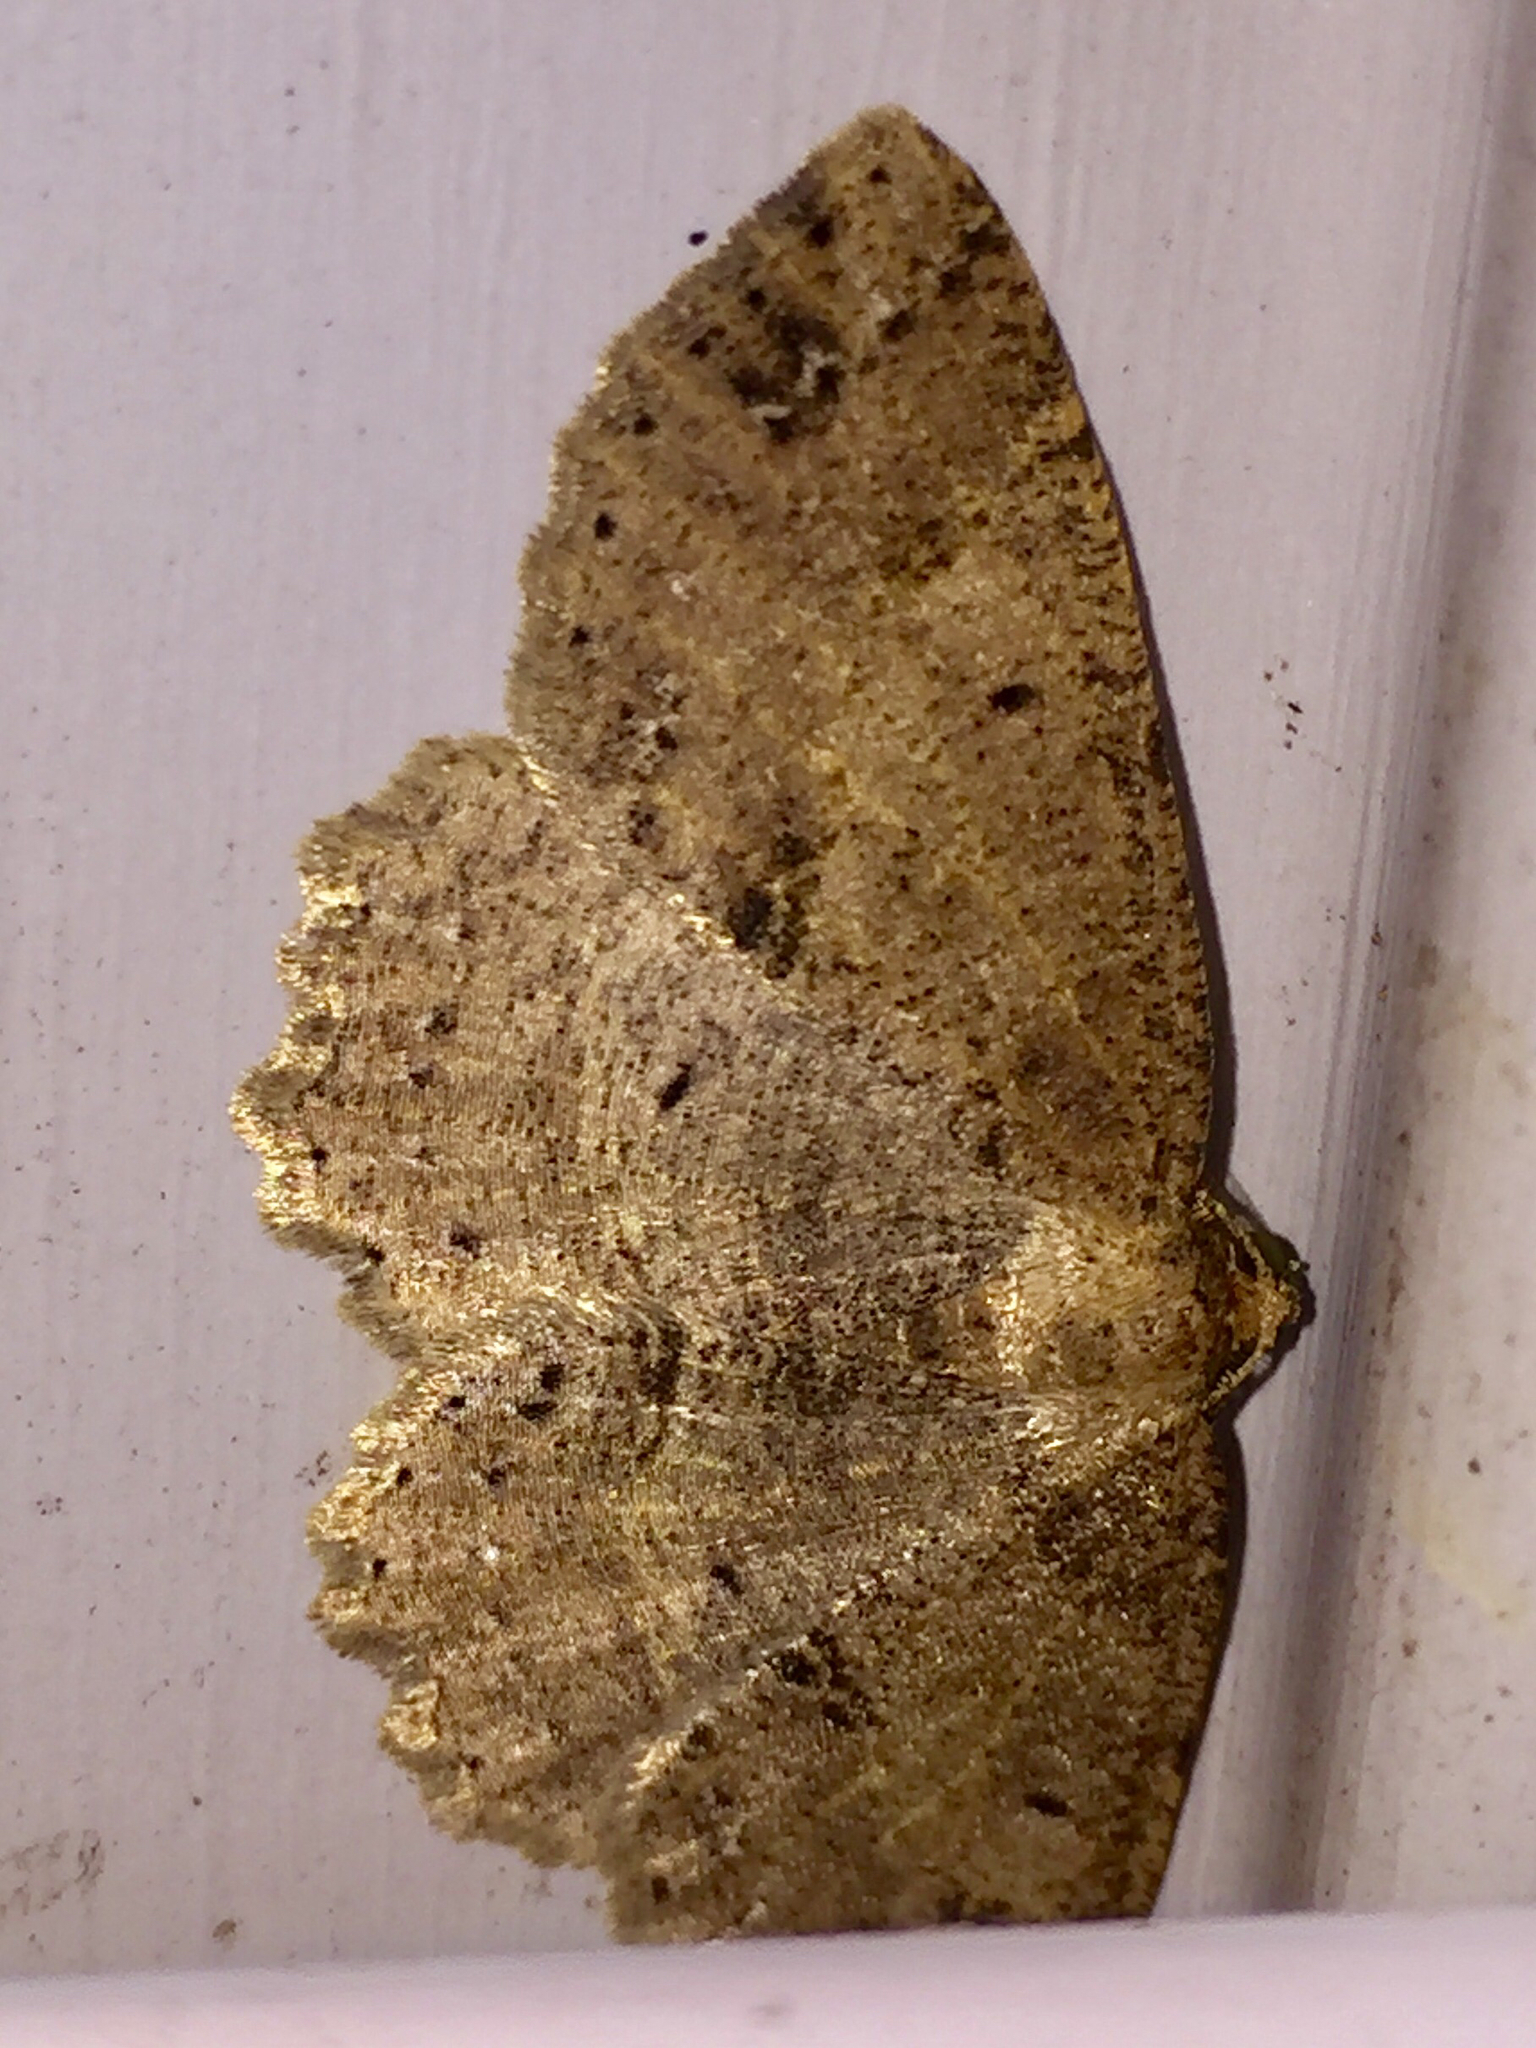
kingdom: Animalia
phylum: Arthropoda
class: Insecta
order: Lepidoptera
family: Geometridae
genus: Melanolophia
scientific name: Melanolophia signataria
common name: Signate melanolophia
